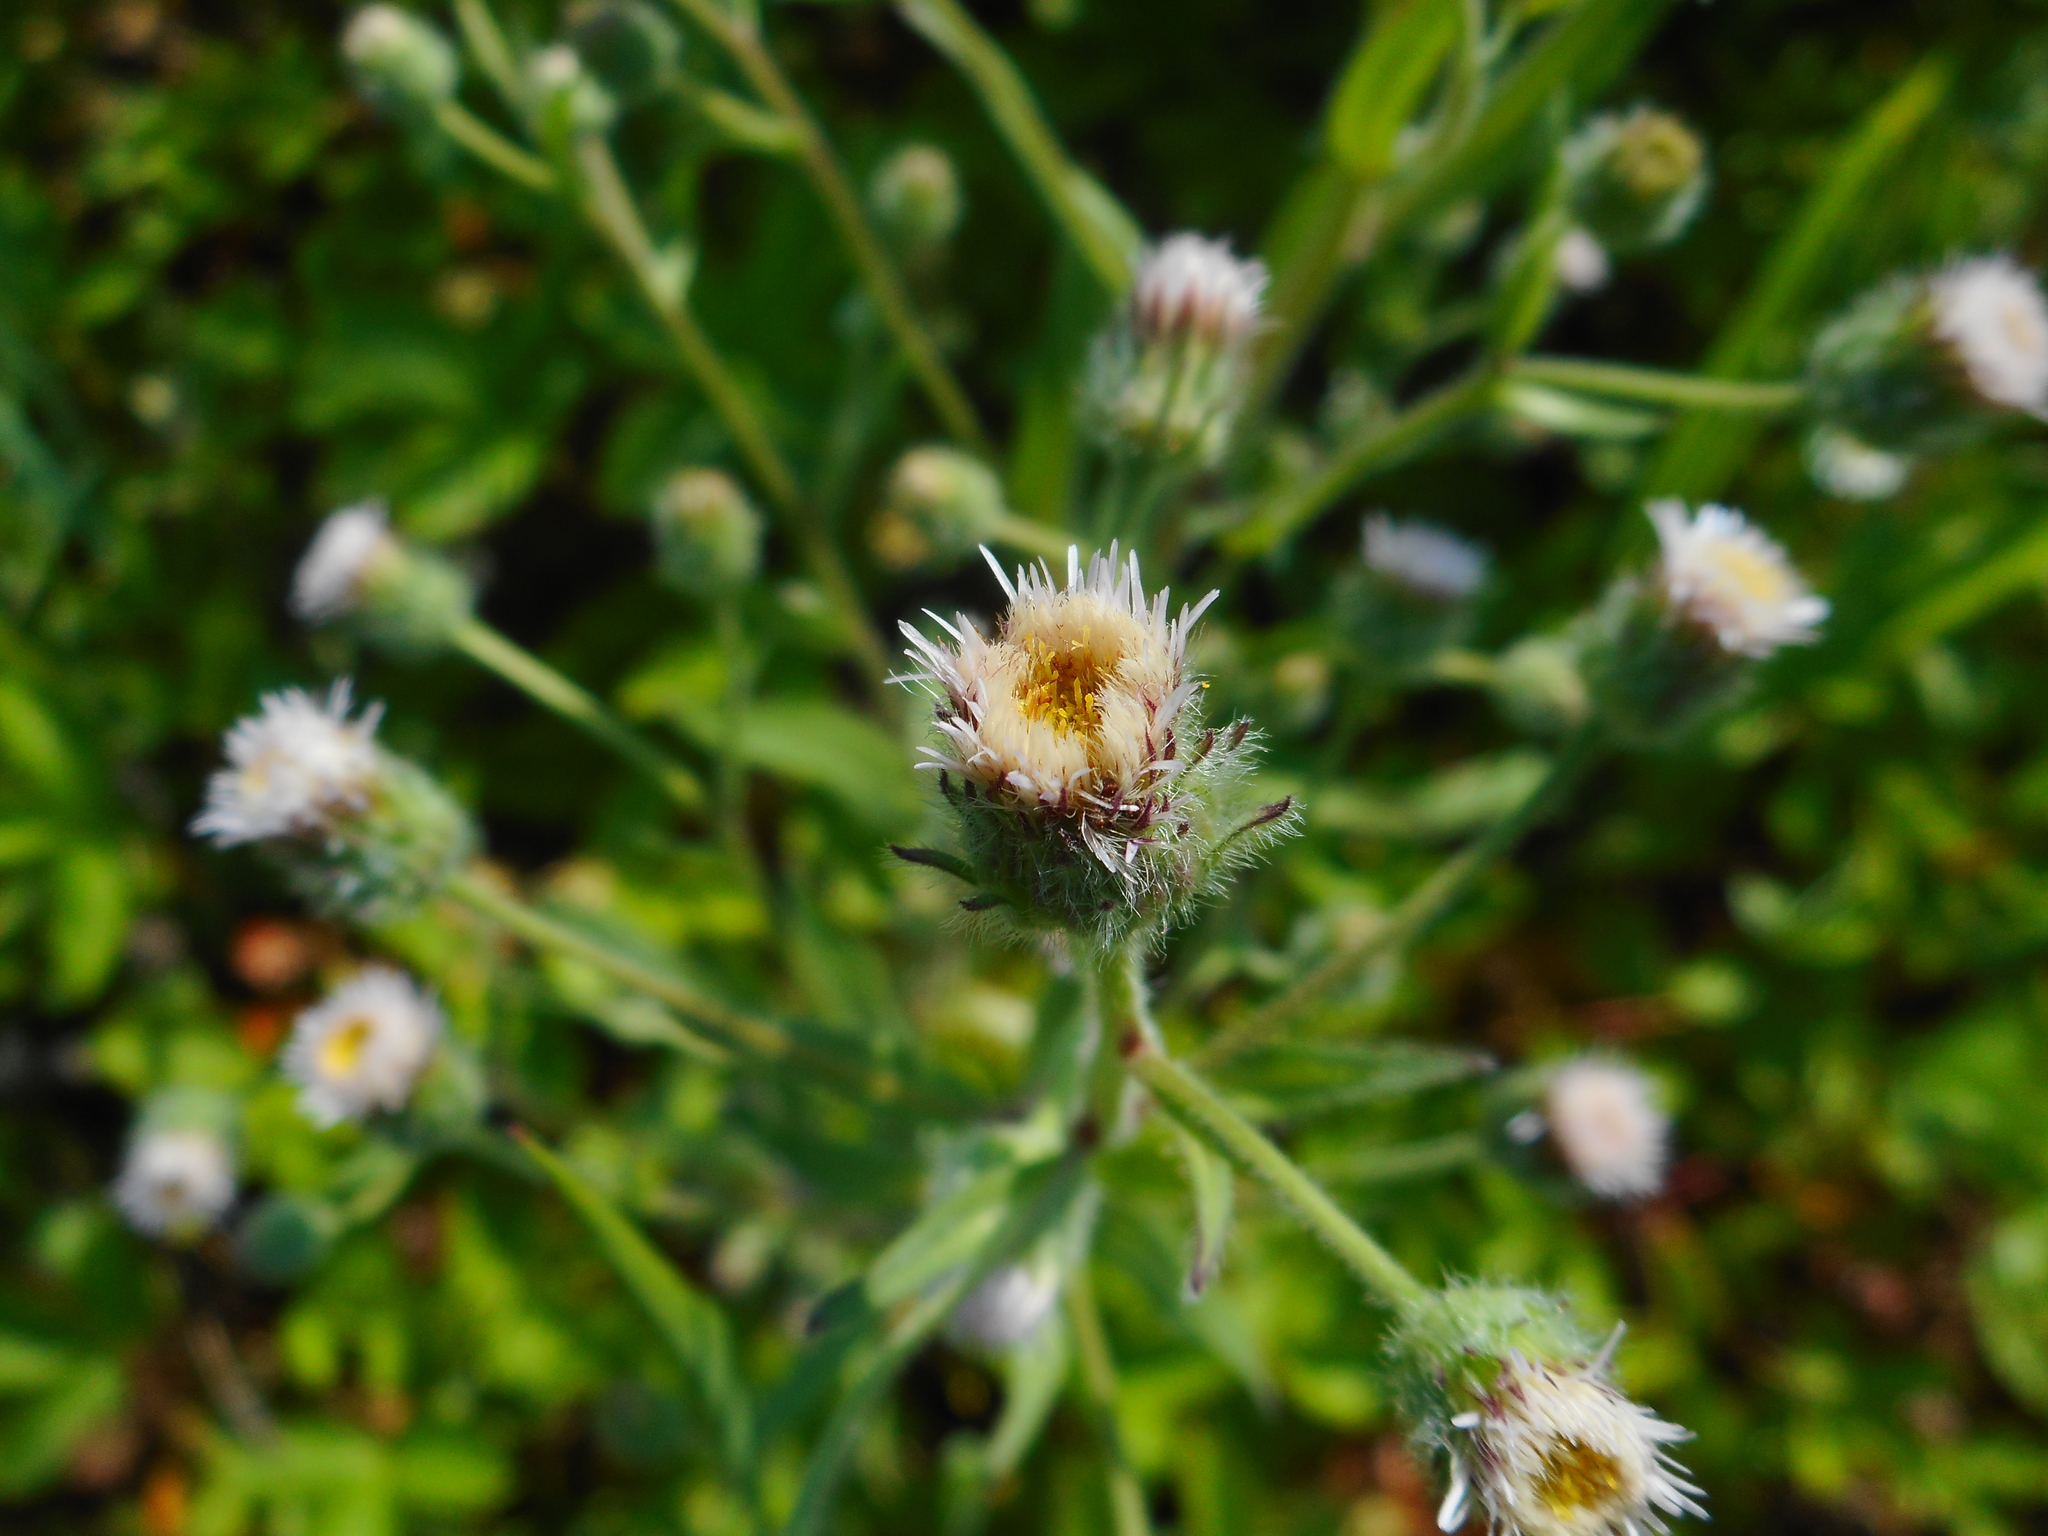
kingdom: Plantae
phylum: Tracheophyta
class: Magnoliopsida
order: Asterales
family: Asteraceae
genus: Erigeron
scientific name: Erigeron acris
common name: Blue fleabane
